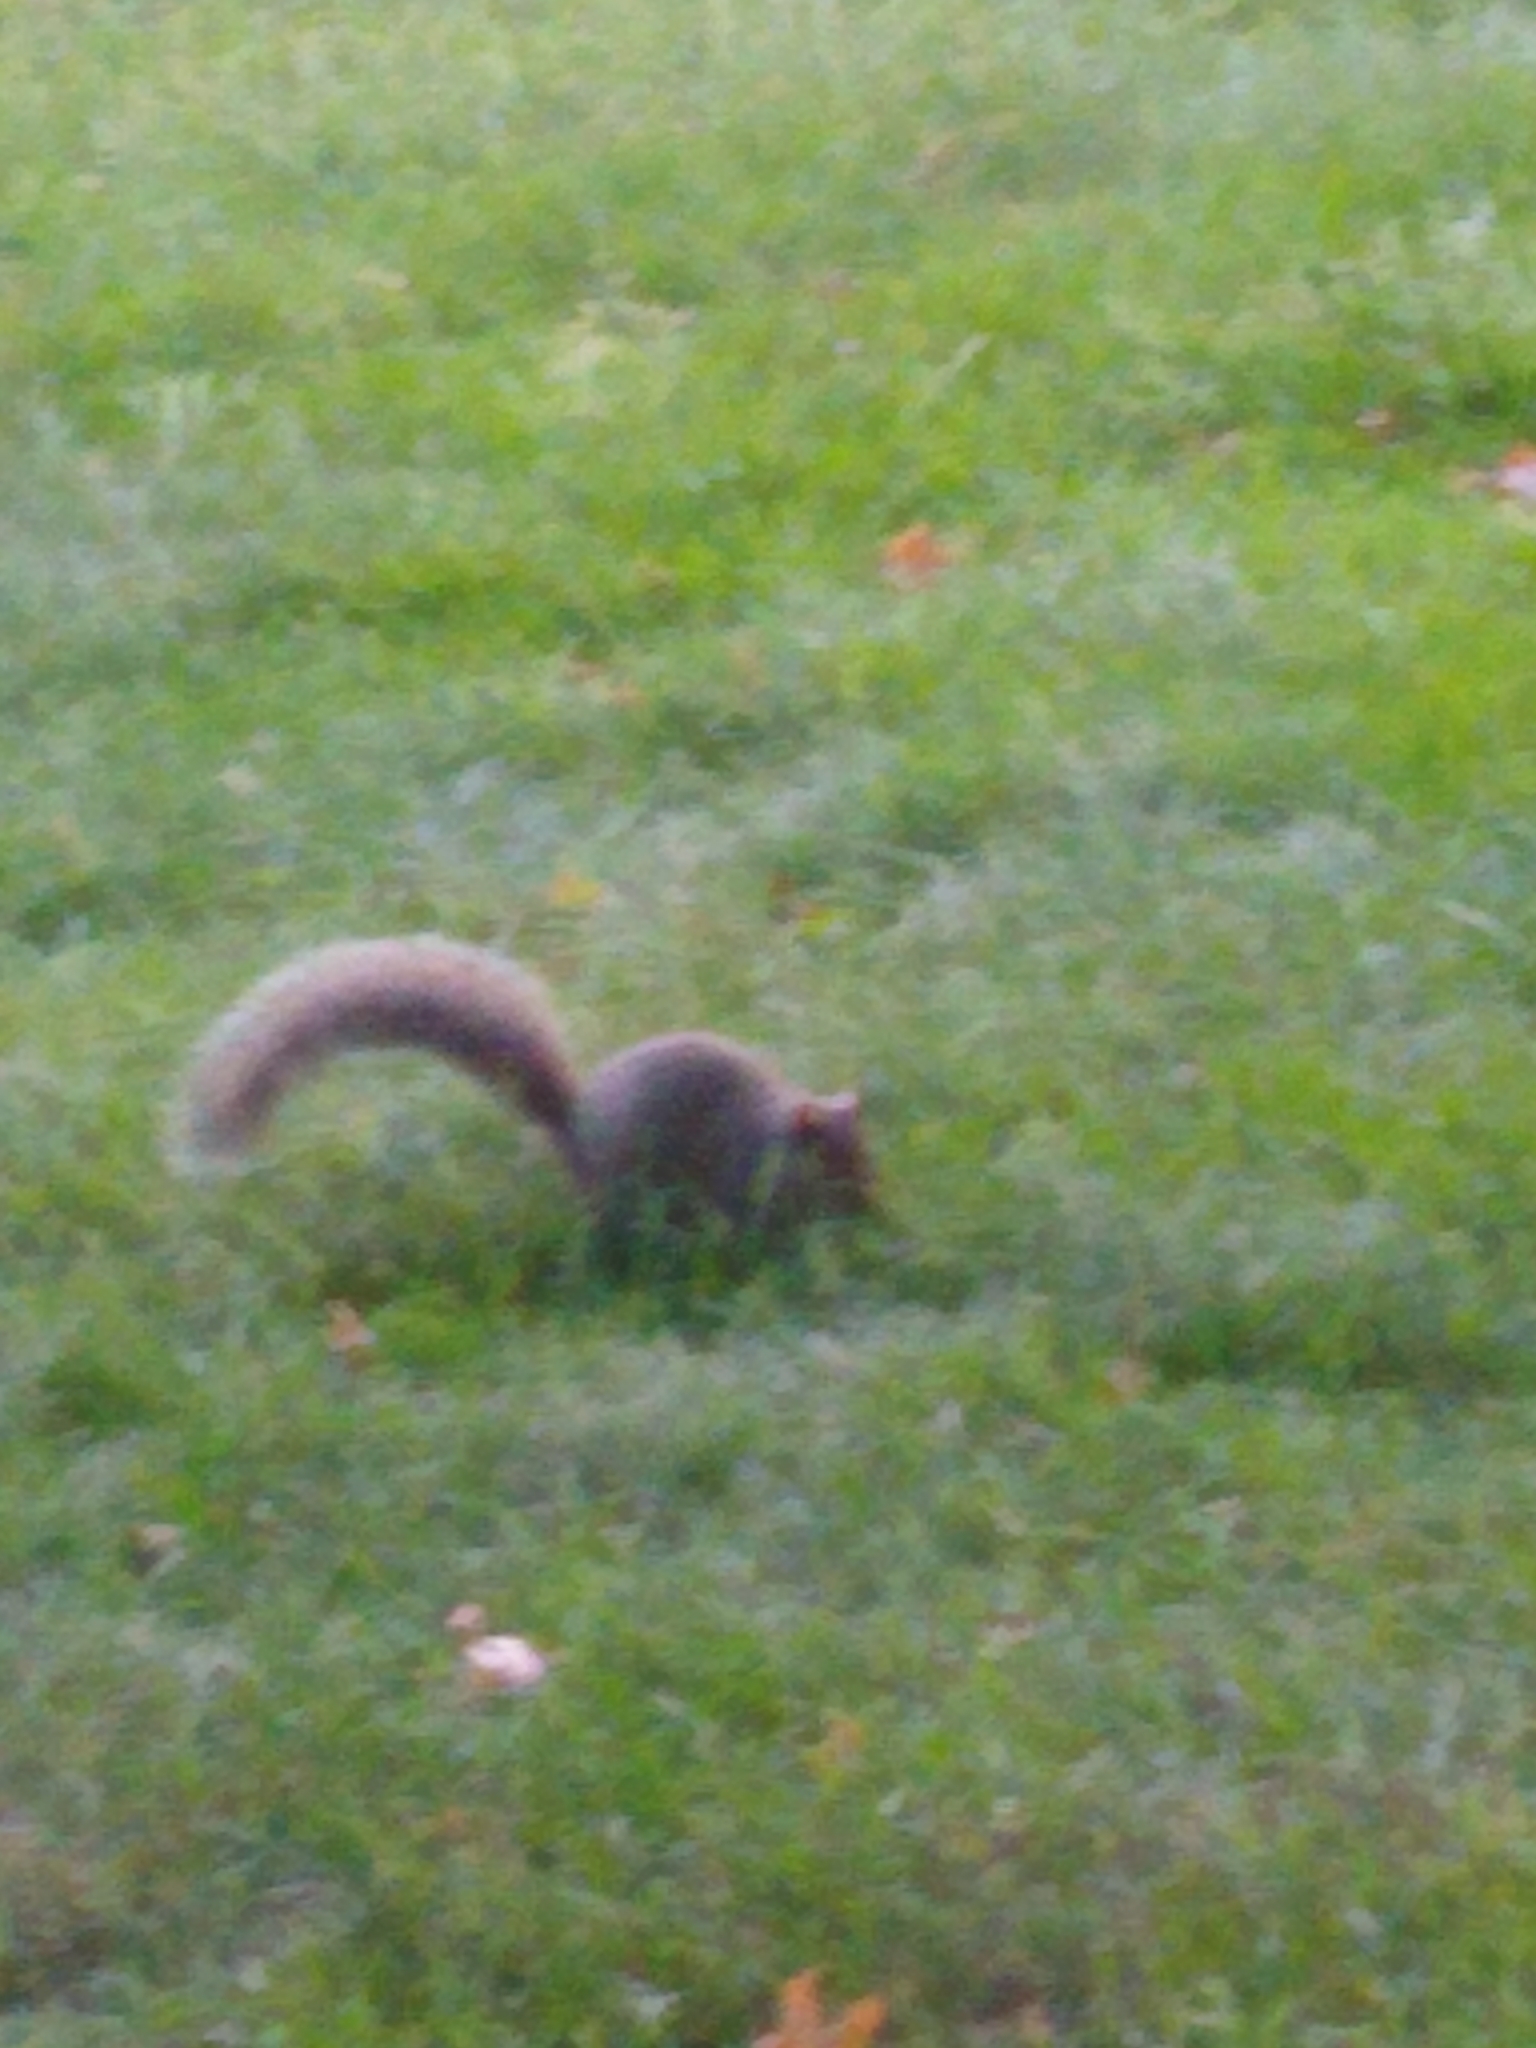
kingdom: Animalia
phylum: Chordata
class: Mammalia
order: Rodentia
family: Sciuridae
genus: Sciurus
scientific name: Sciurus carolinensis
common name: Eastern gray squirrel
